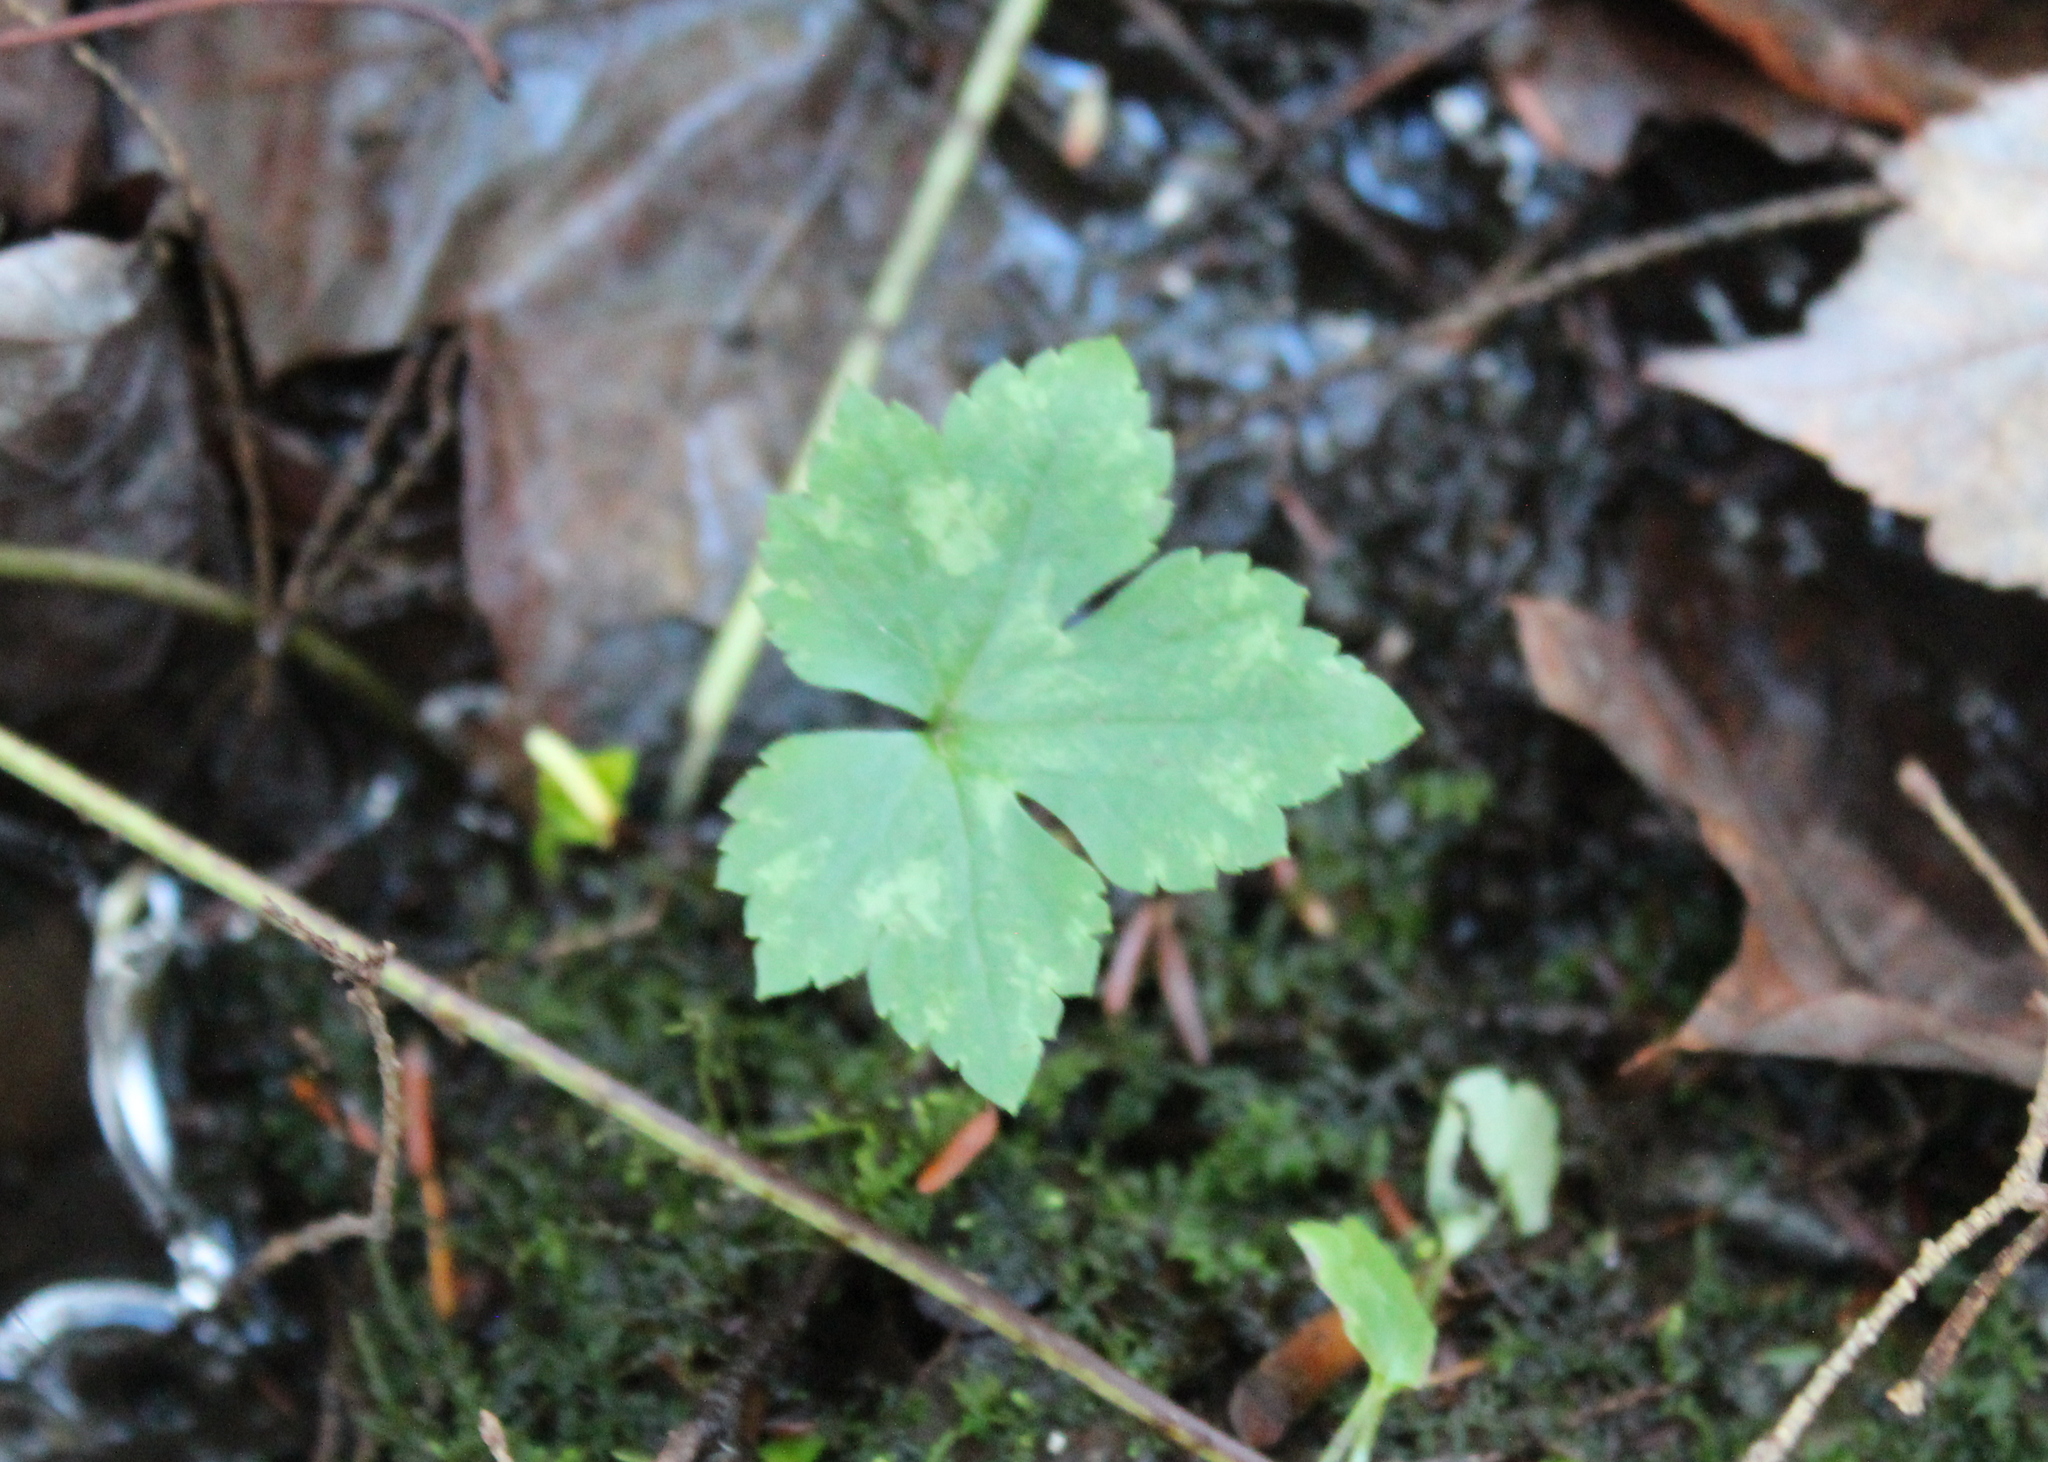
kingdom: Plantae
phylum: Tracheophyta
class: Magnoliopsida
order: Ranunculales
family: Ranunculaceae
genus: Ranunculus
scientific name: Ranunculus recurvatus
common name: Blisterwort
